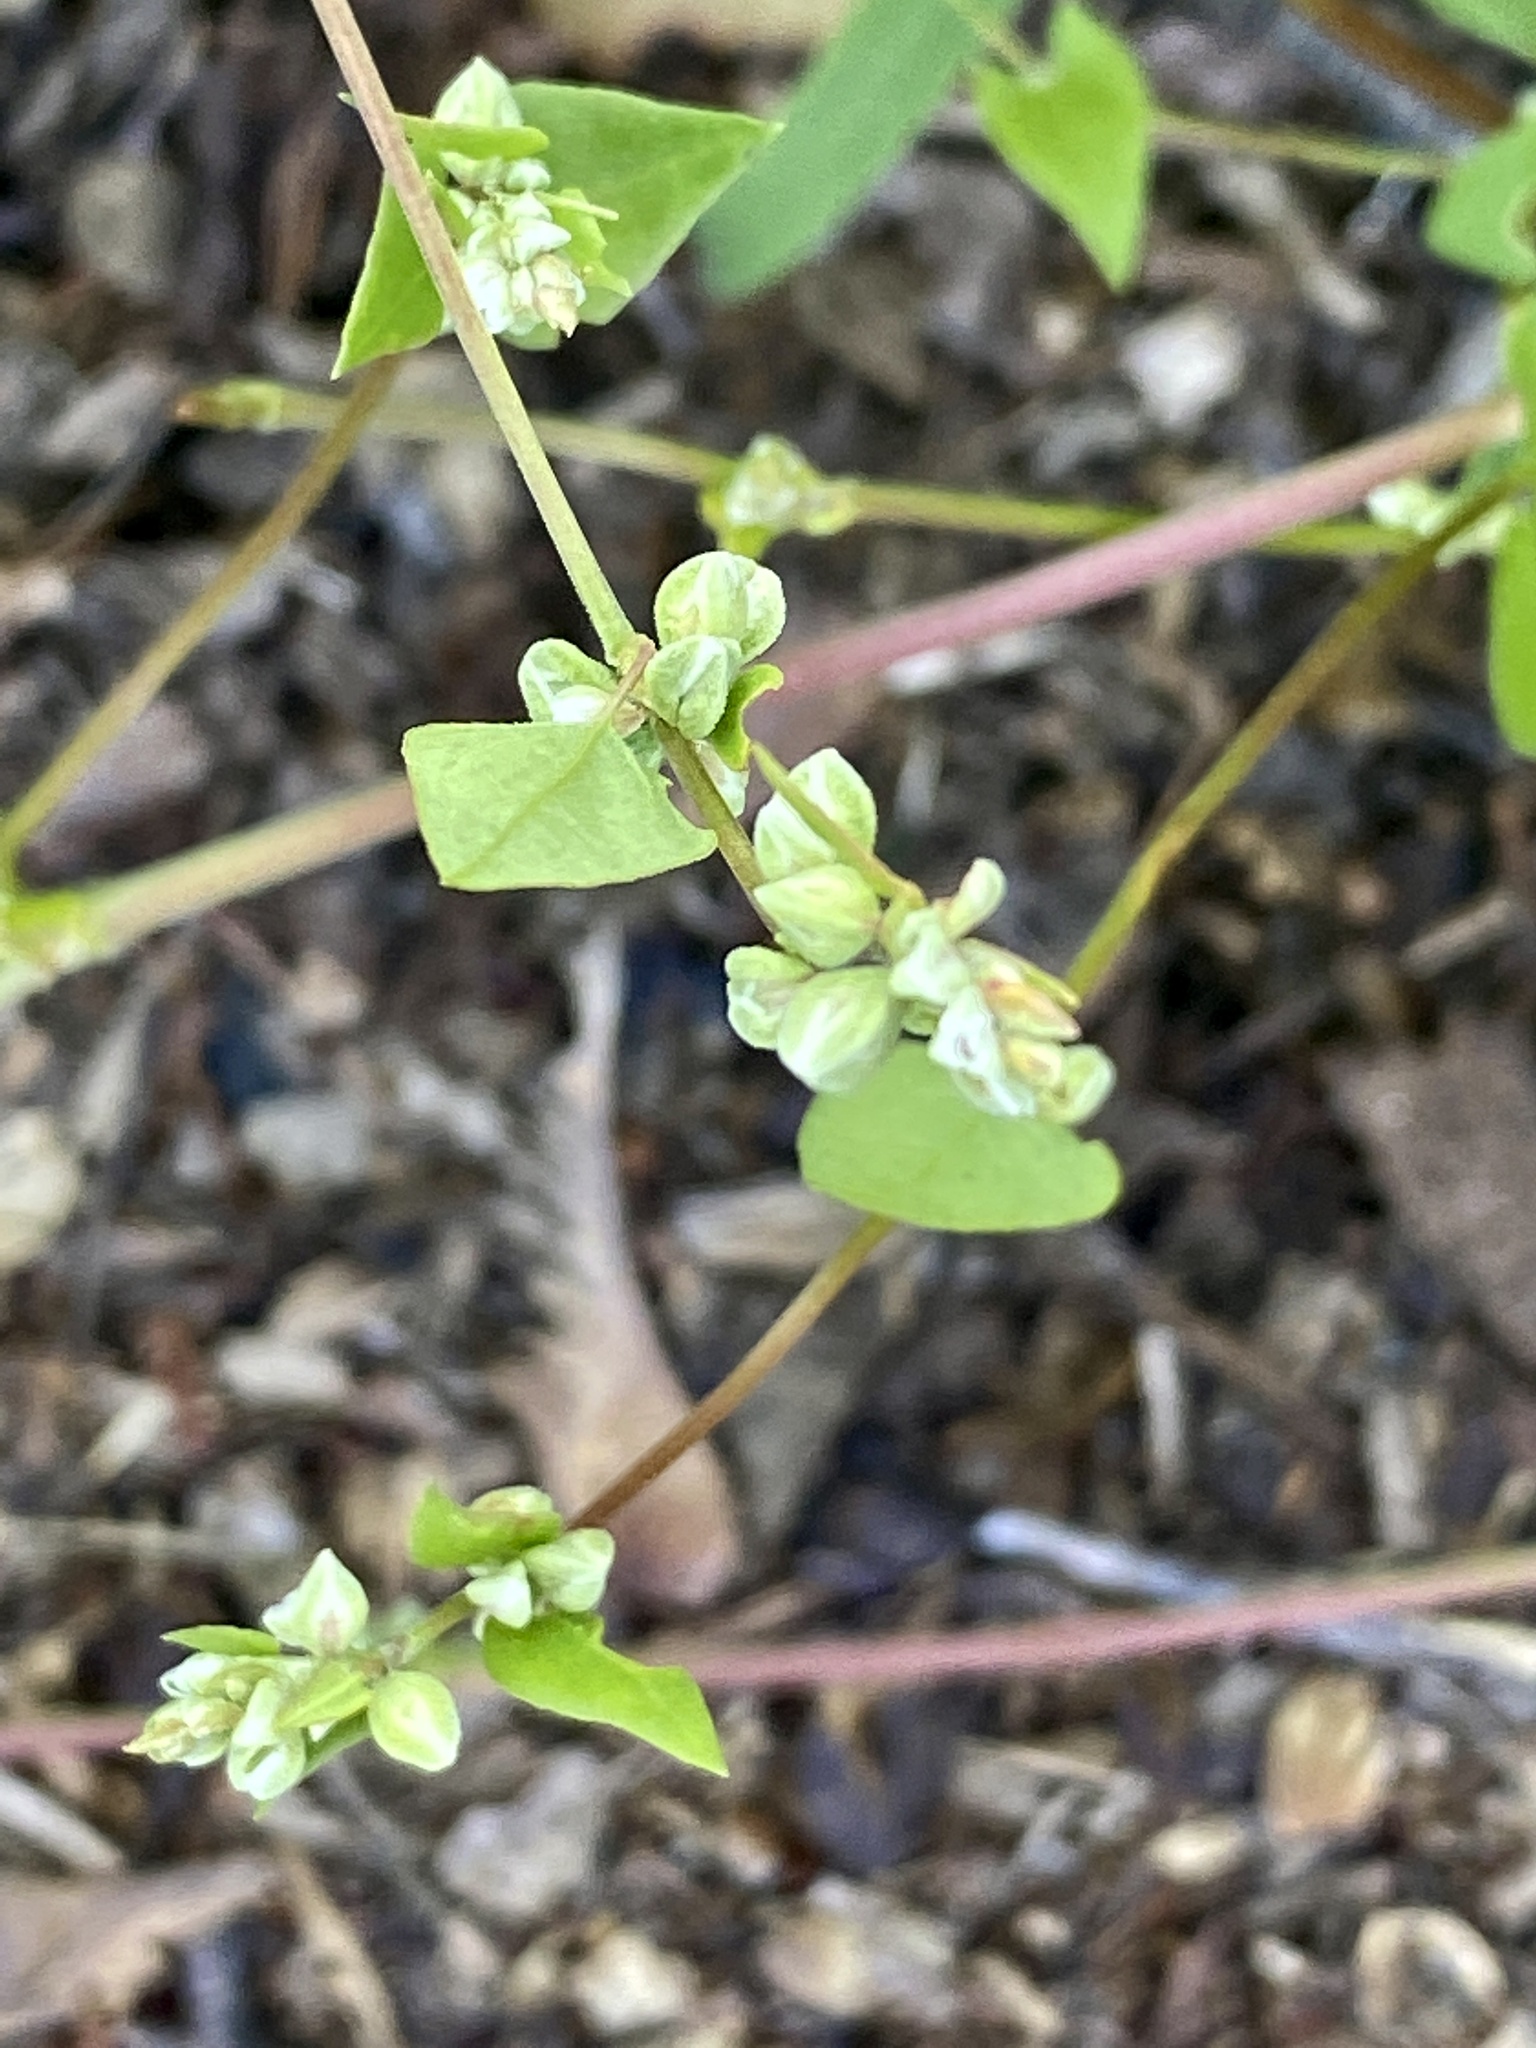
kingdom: Plantae
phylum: Tracheophyta
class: Magnoliopsida
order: Caryophyllales
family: Polygonaceae
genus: Fallopia
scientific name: Fallopia scandens
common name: Climbing false buckwheat
